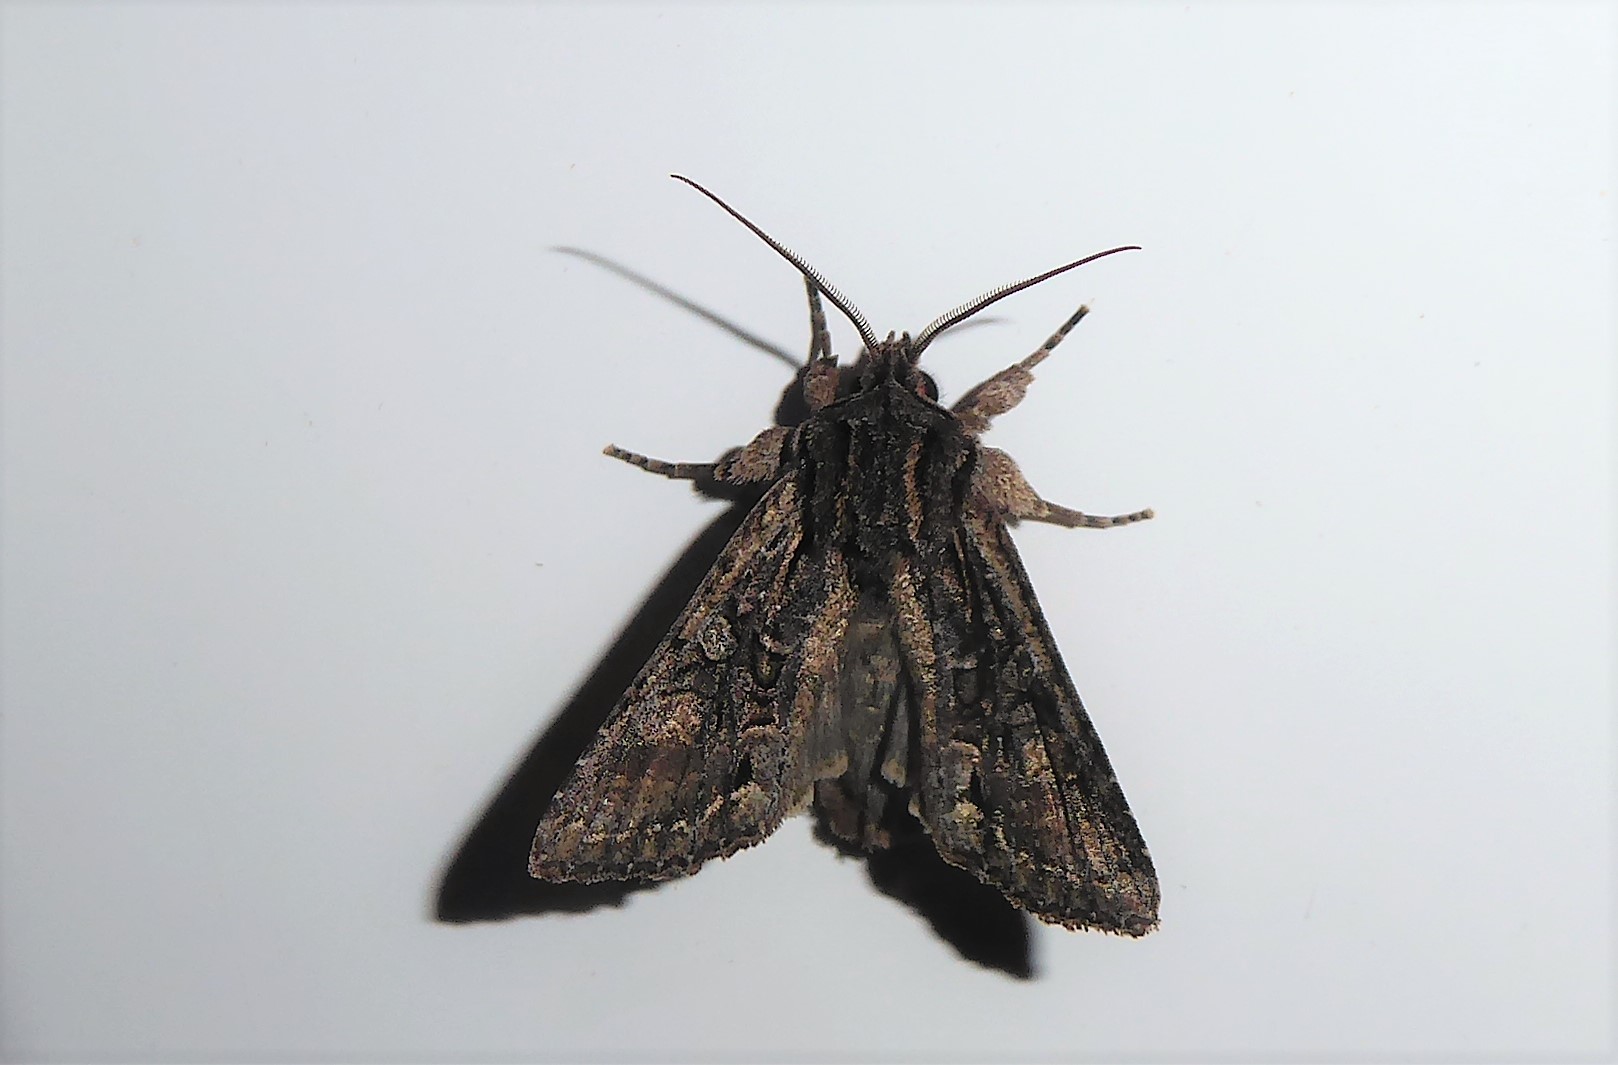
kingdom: Animalia
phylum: Arthropoda
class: Insecta
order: Lepidoptera
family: Noctuidae
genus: Ichneutica
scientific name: Ichneutica mutans
